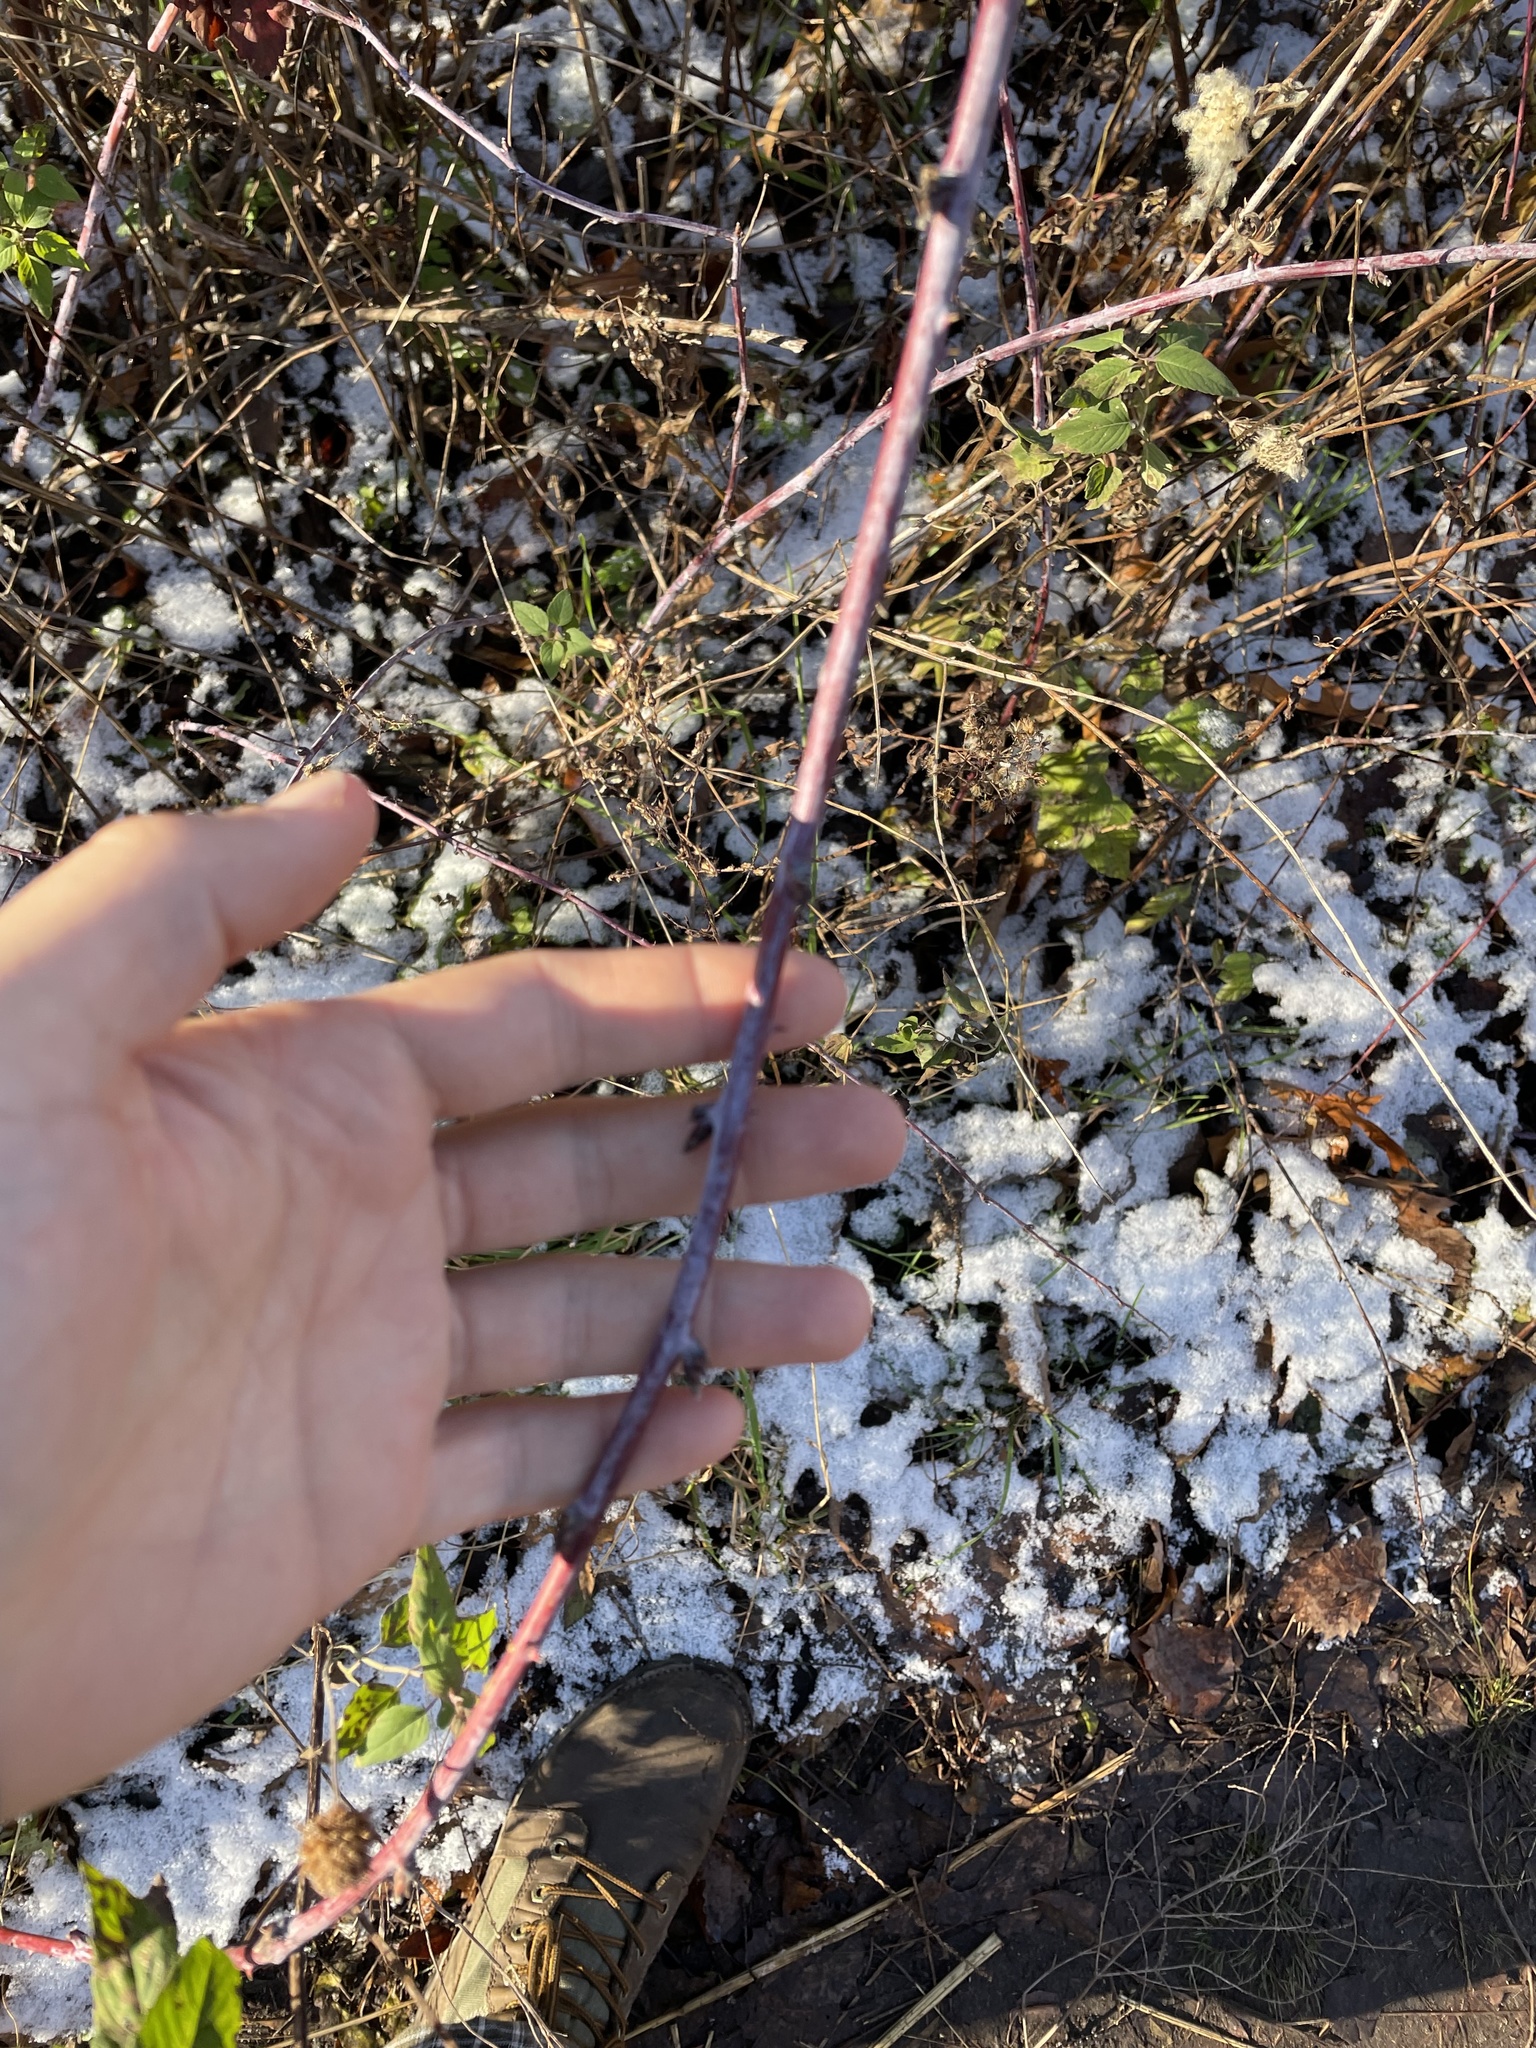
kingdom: Plantae
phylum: Tracheophyta
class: Magnoliopsida
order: Rosales
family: Rosaceae
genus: Rubus
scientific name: Rubus occidentalis
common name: Black raspberry
